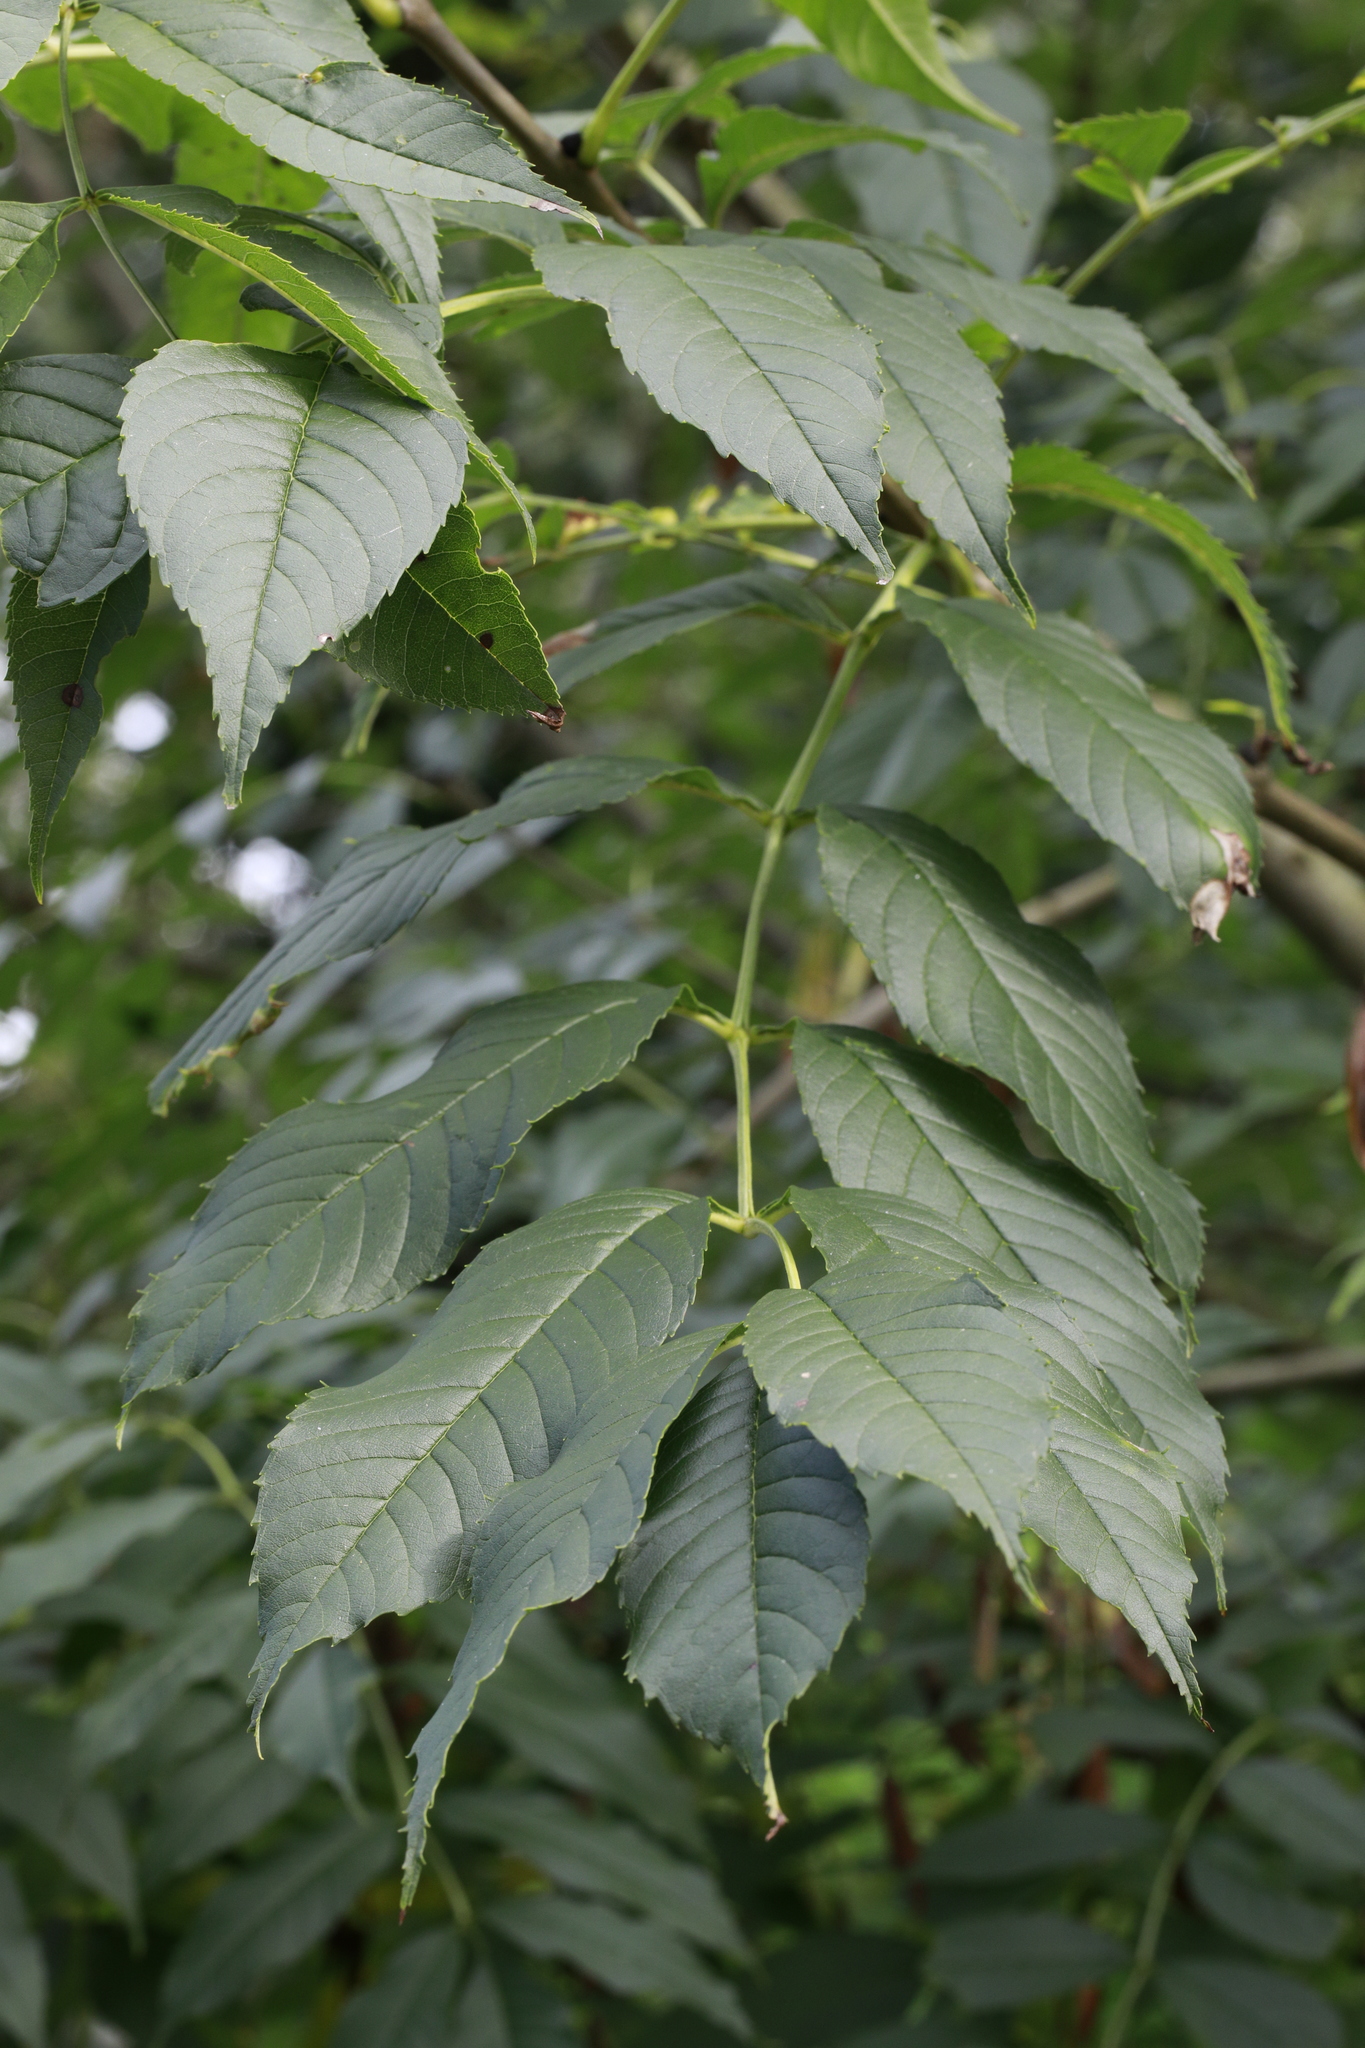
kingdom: Plantae
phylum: Tracheophyta
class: Magnoliopsida
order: Lamiales
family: Oleaceae
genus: Fraxinus
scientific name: Fraxinus excelsior
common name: European ash
